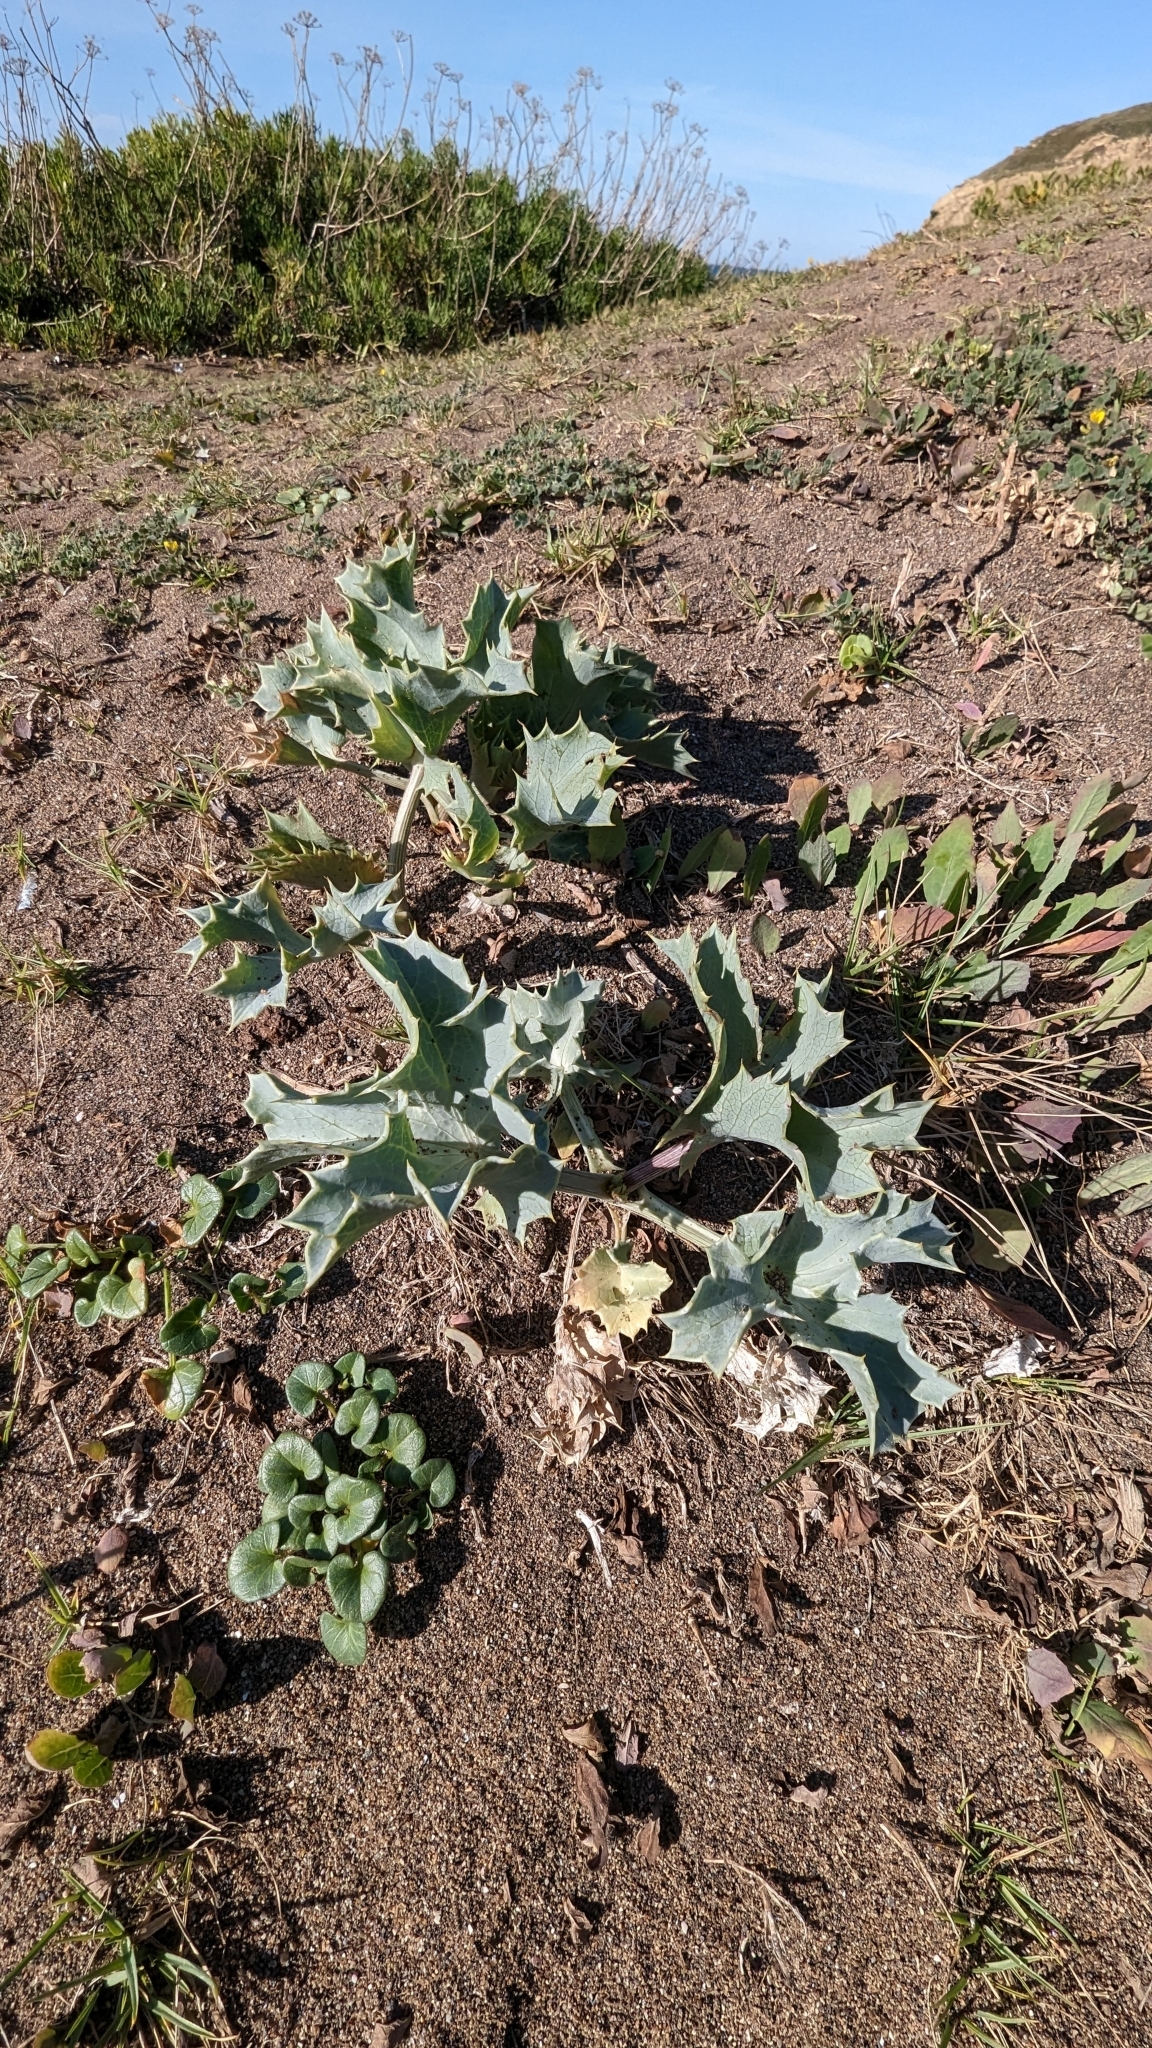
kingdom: Plantae
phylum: Tracheophyta
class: Magnoliopsida
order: Apiales
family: Apiaceae
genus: Eryngium
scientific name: Eryngium maritimum
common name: Sea-holly
